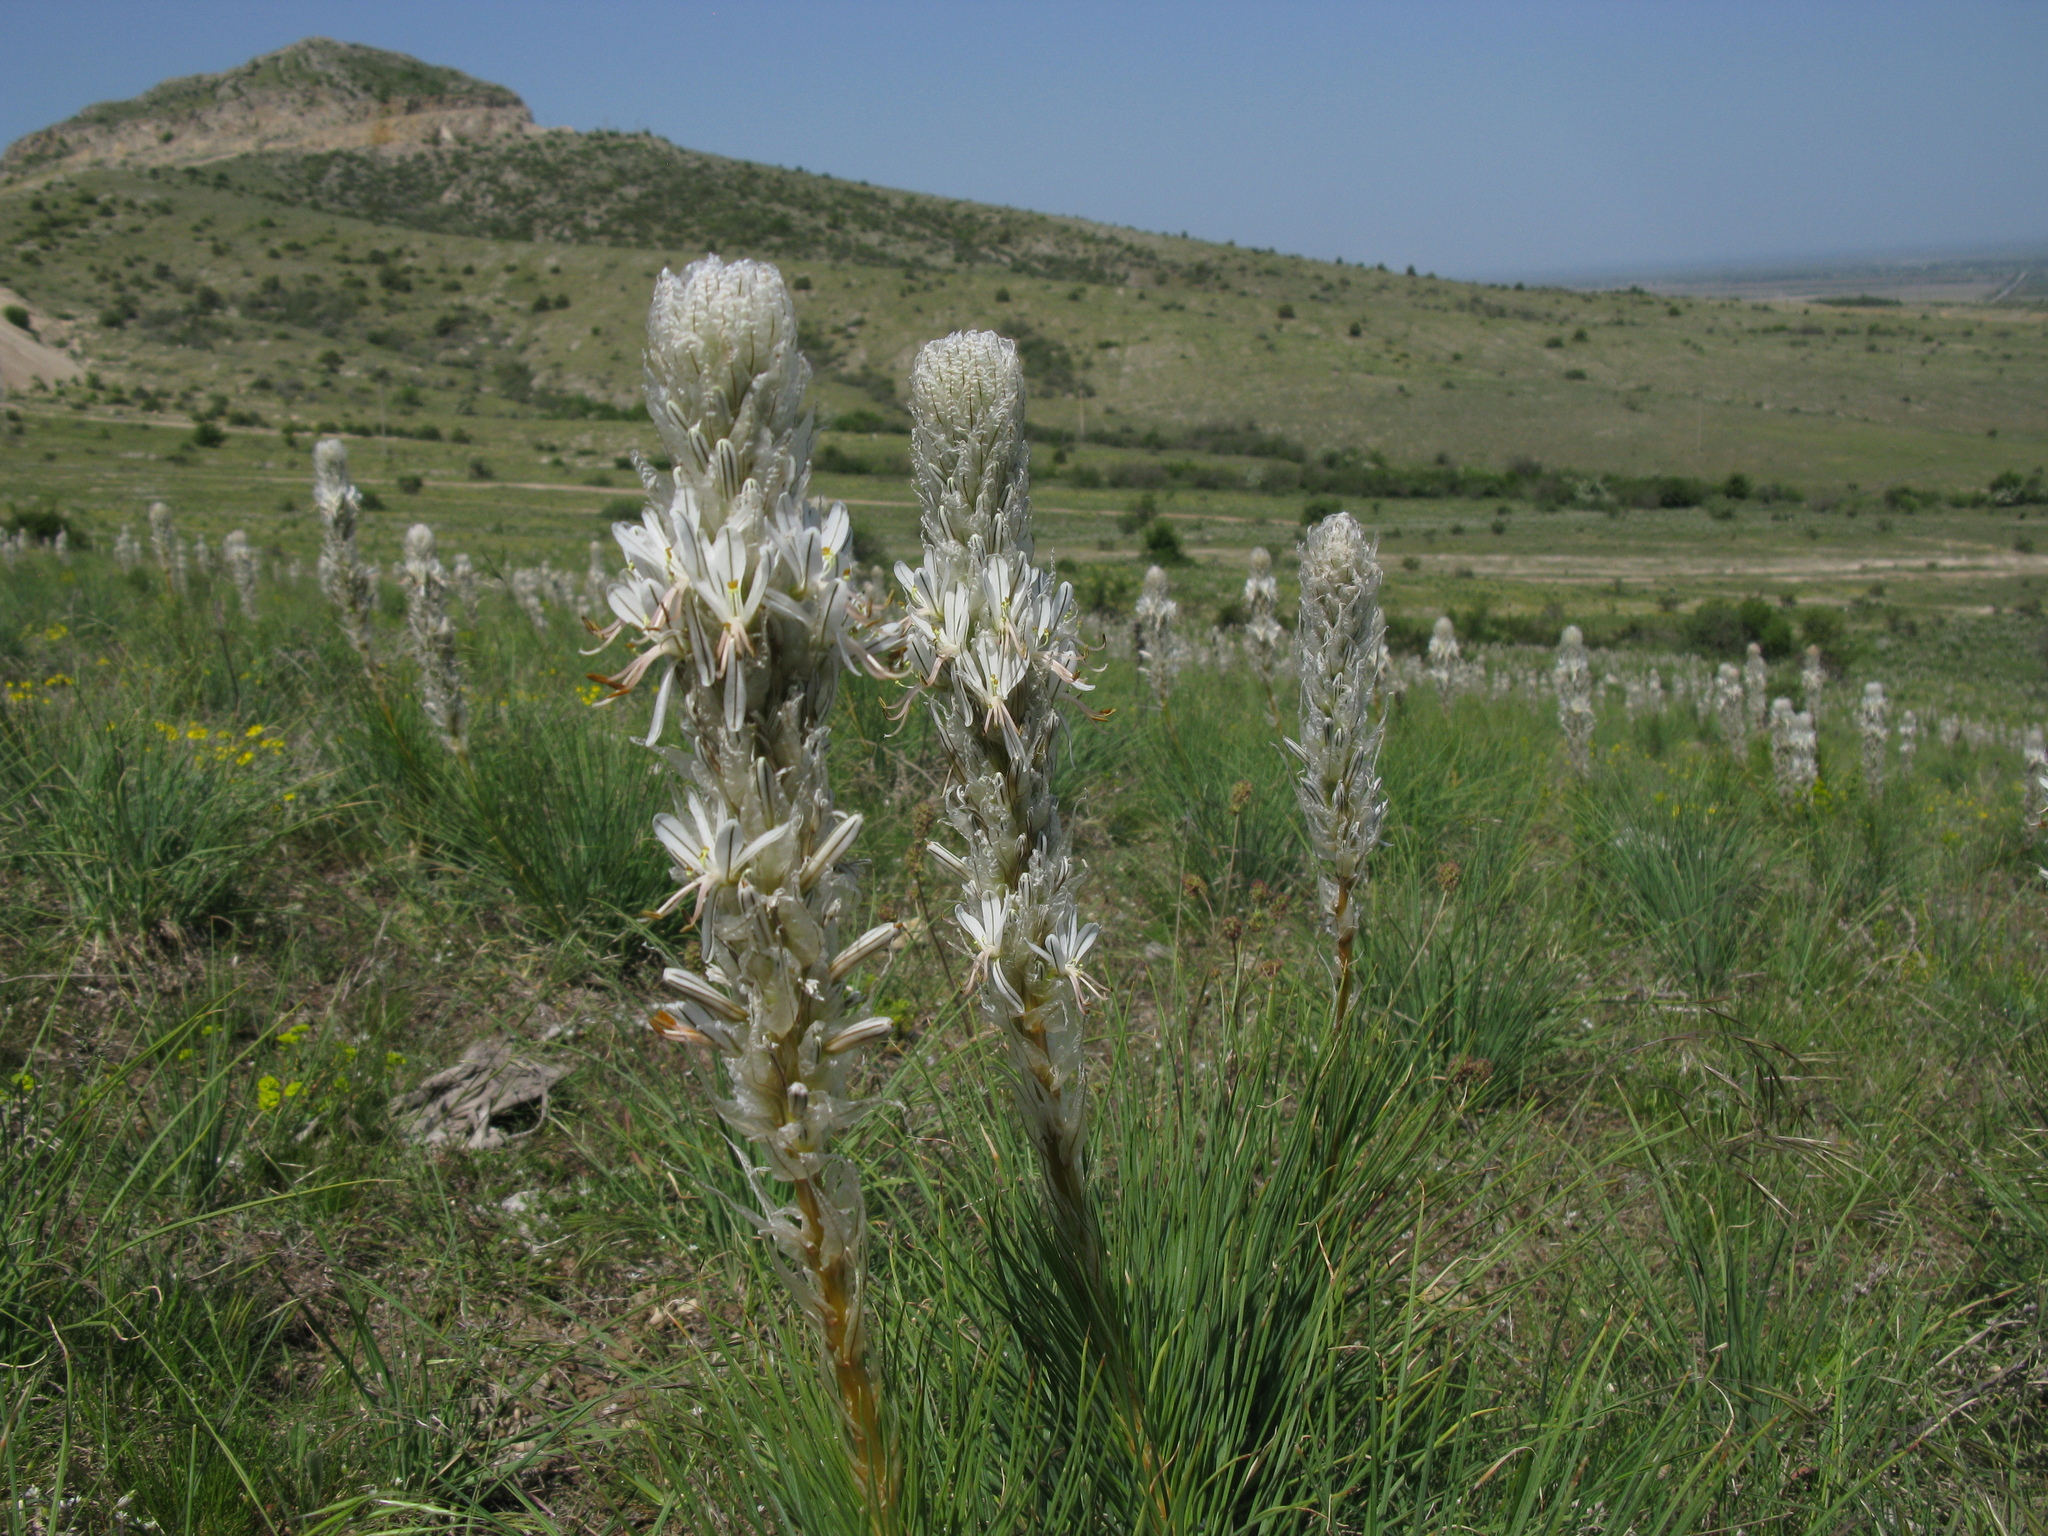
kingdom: Plantae
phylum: Tracheophyta
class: Liliopsida
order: Asparagales
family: Asphodelaceae
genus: Asphodeline
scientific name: Asphodeline taurica
